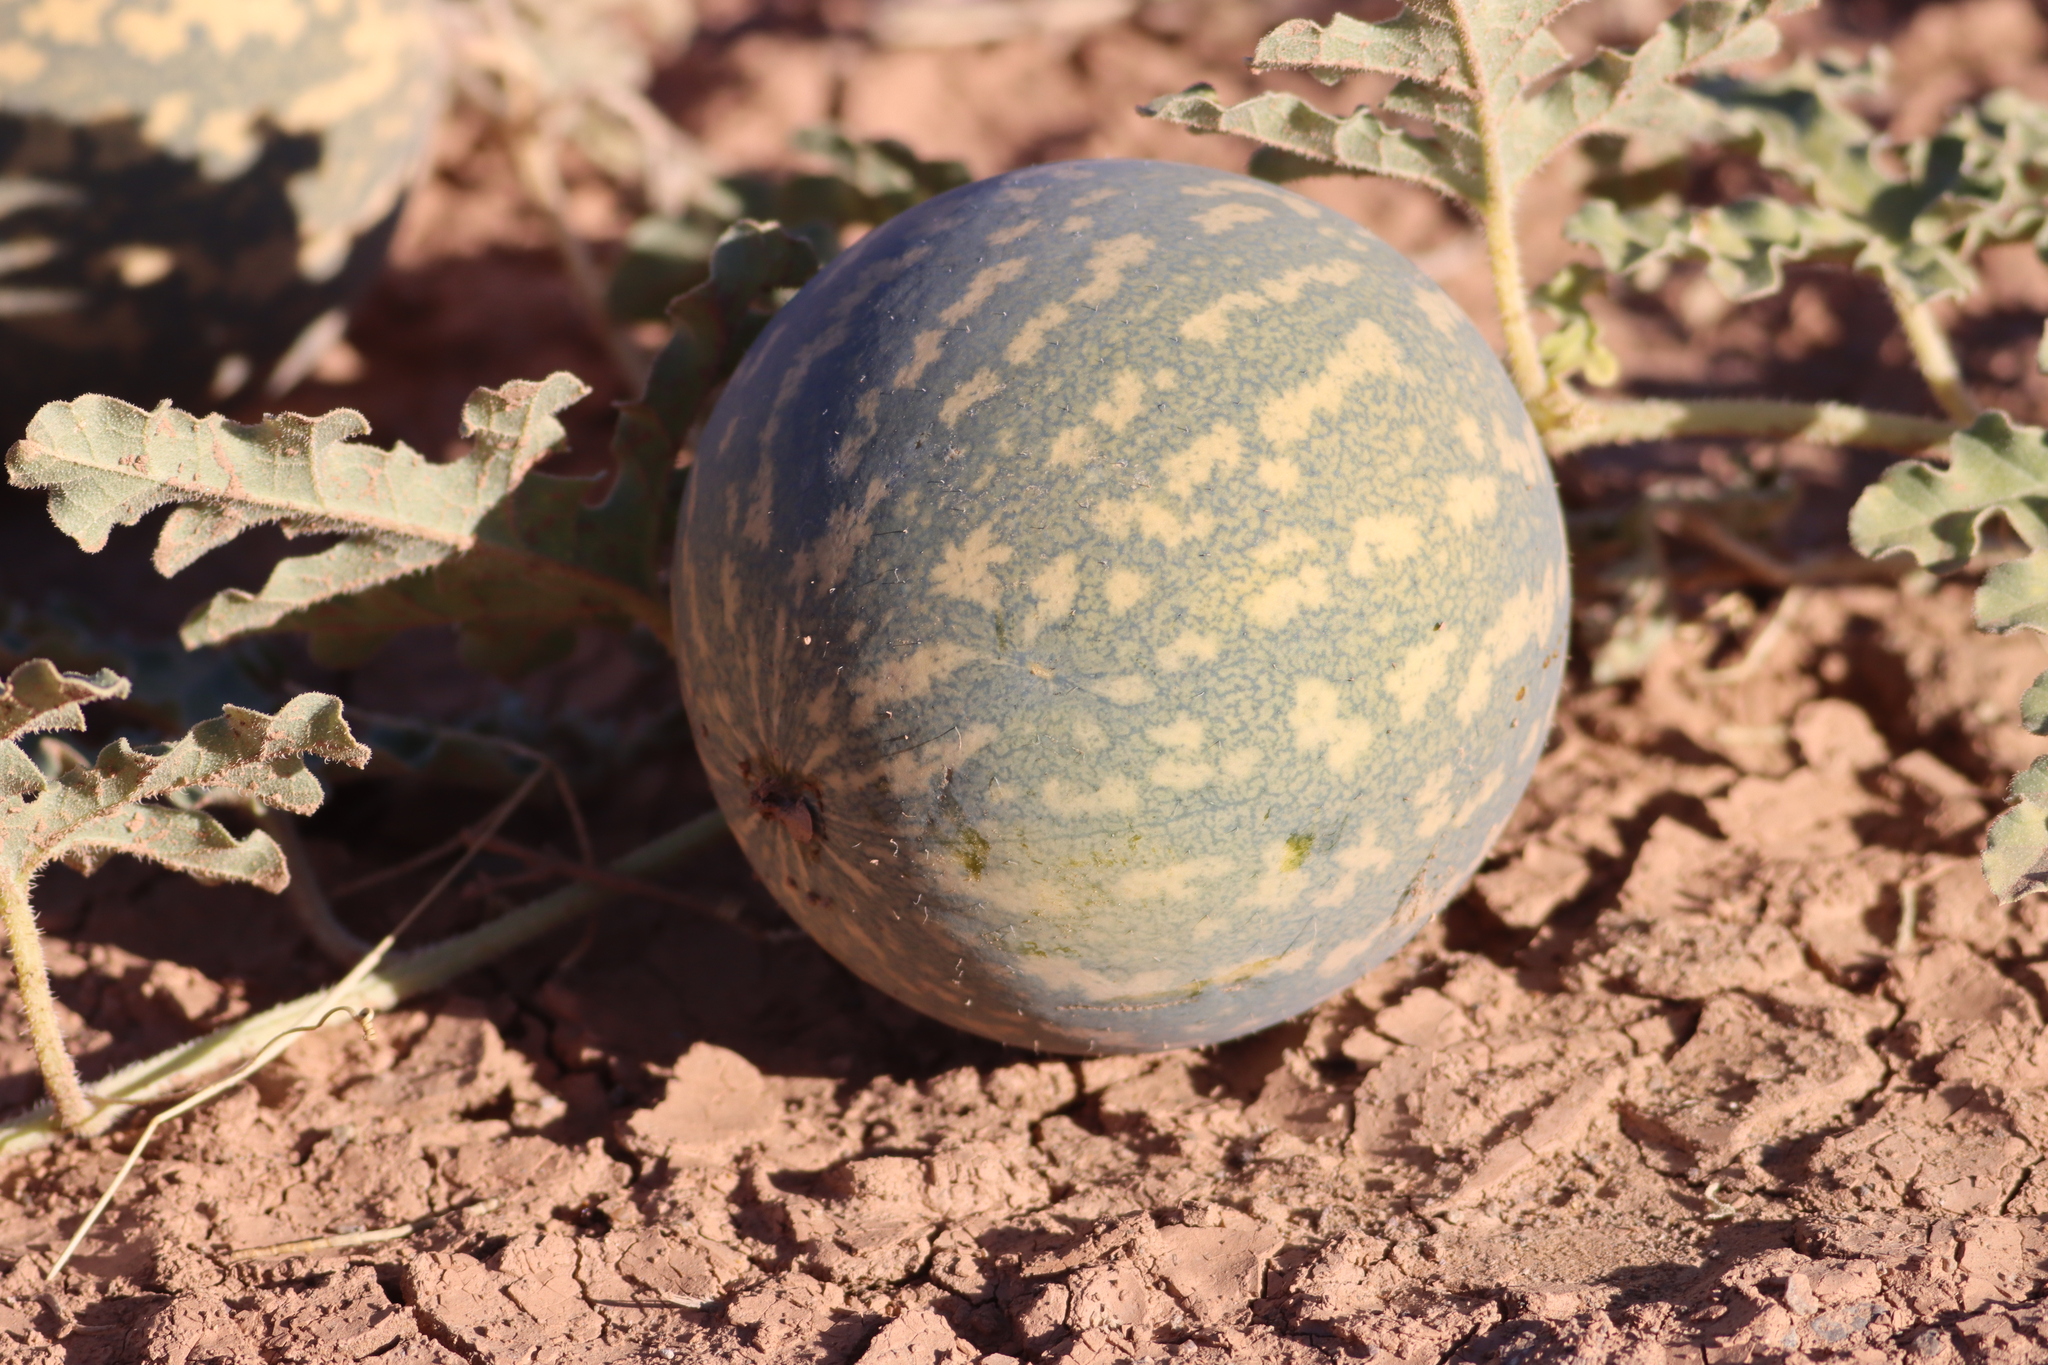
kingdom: Plantae
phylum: Tracheophyta
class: Magnoliopsida
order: Cucurbitales
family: Cucurbitaceae
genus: Citrullus
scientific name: Citrullus colocynthis
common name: Colocynth
